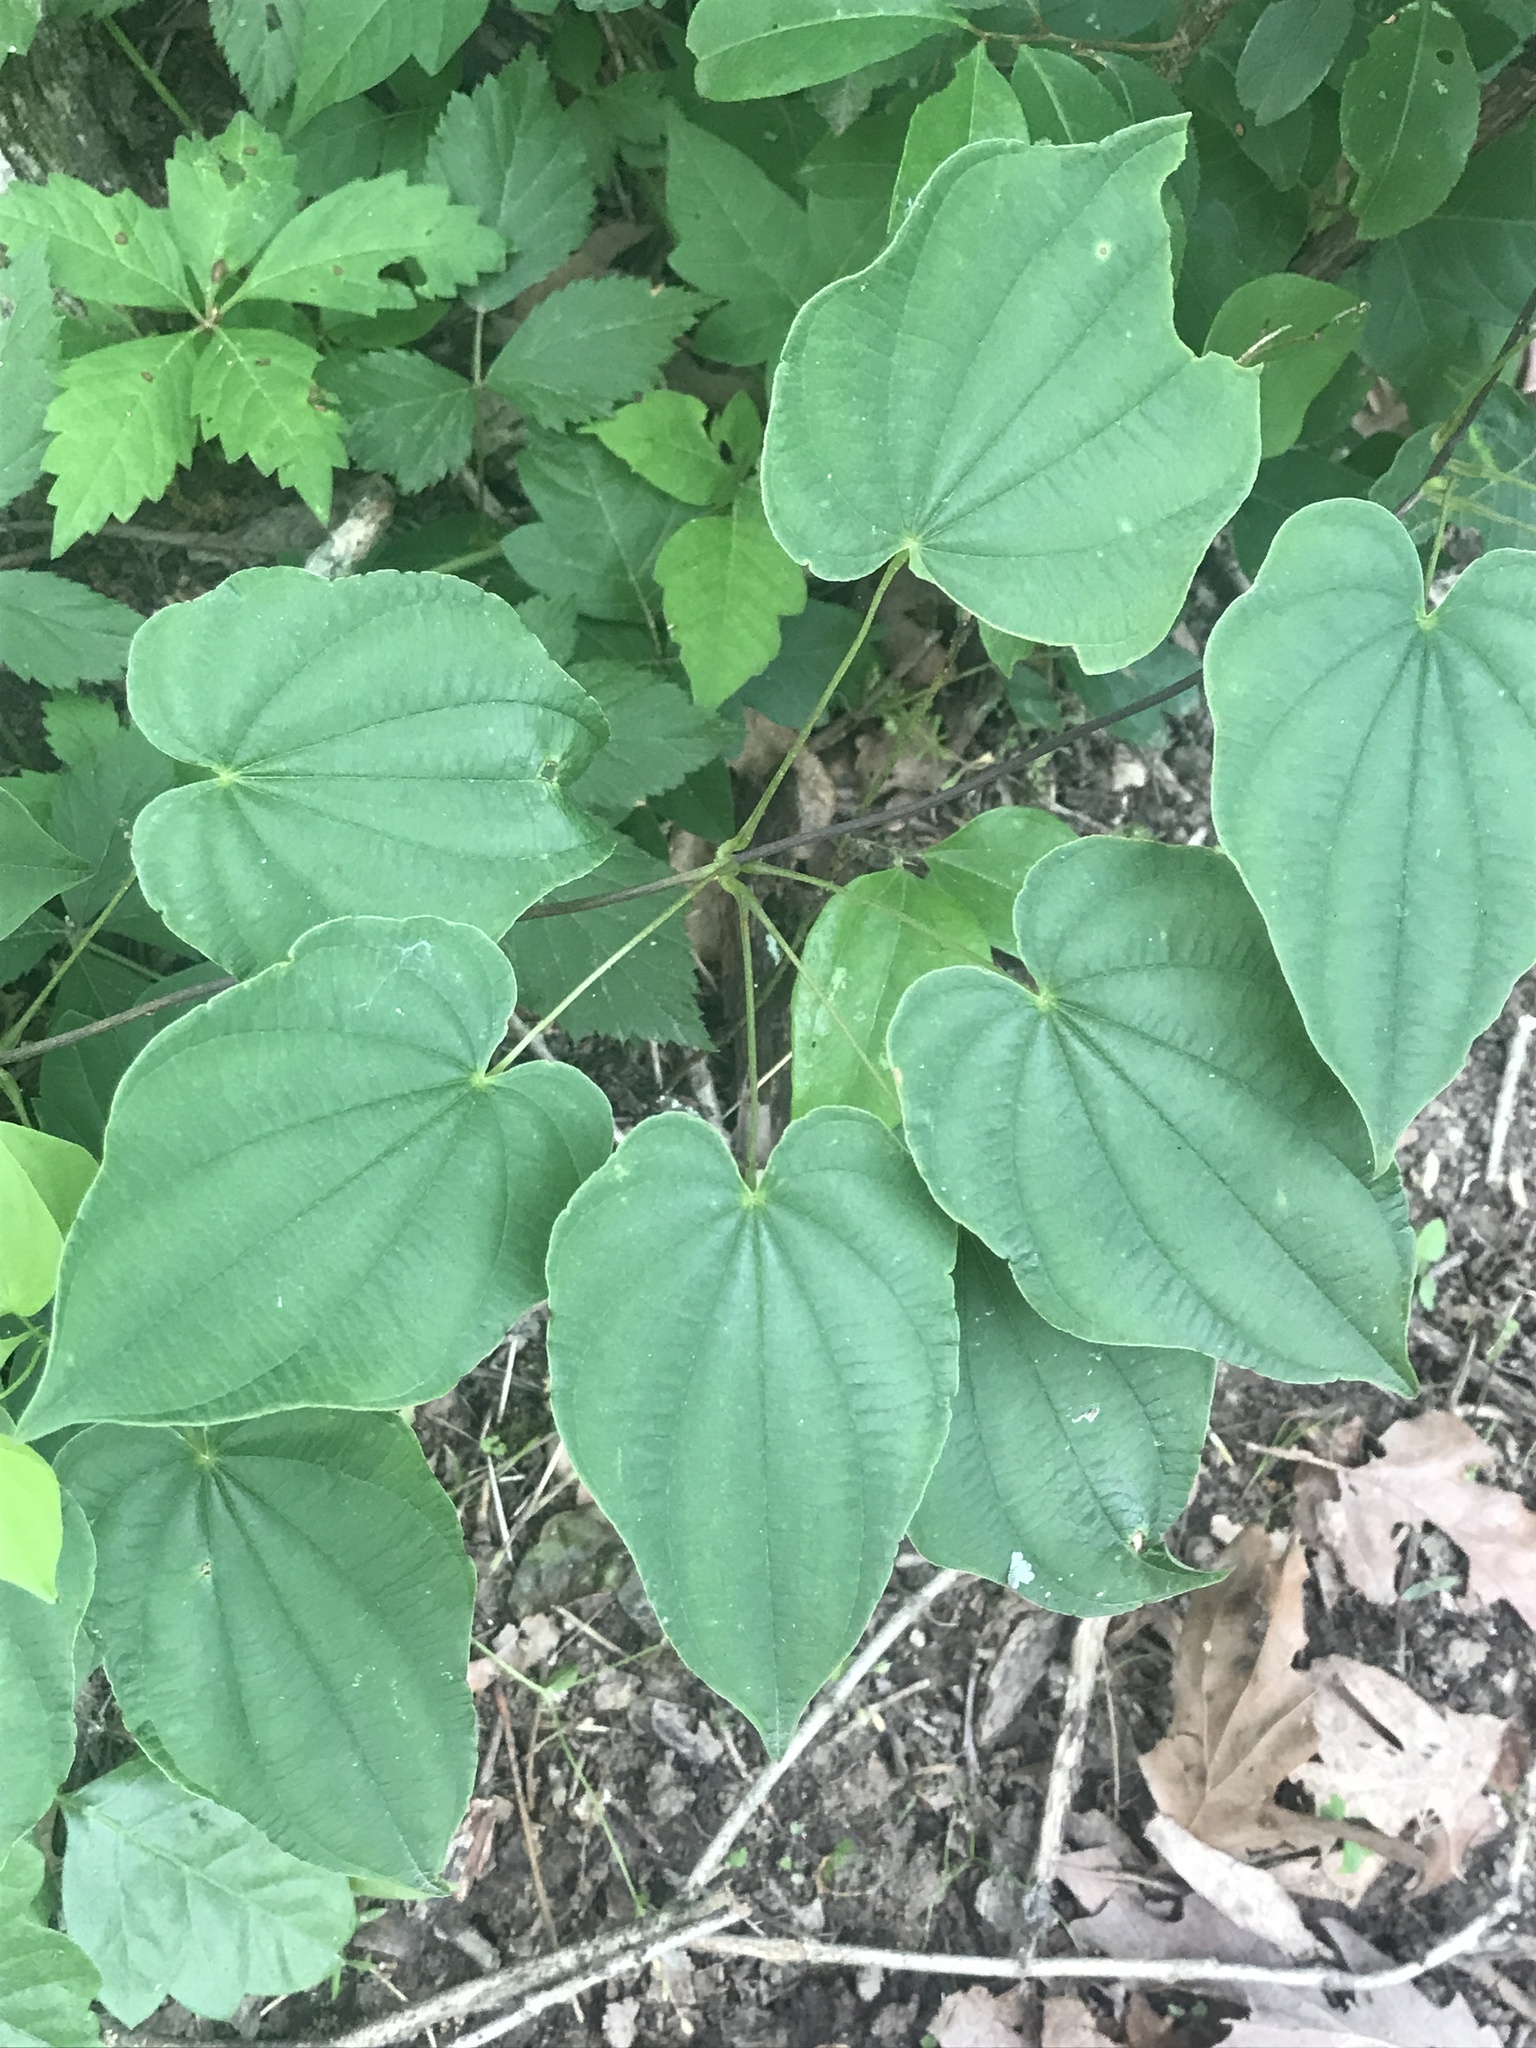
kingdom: Plantae
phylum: Tracheophyta
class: Liliopsida
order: Dioscoreales
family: Dioscoreaceae
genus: Dioscorea
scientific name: Dioscorea villosa
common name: Wild yam
